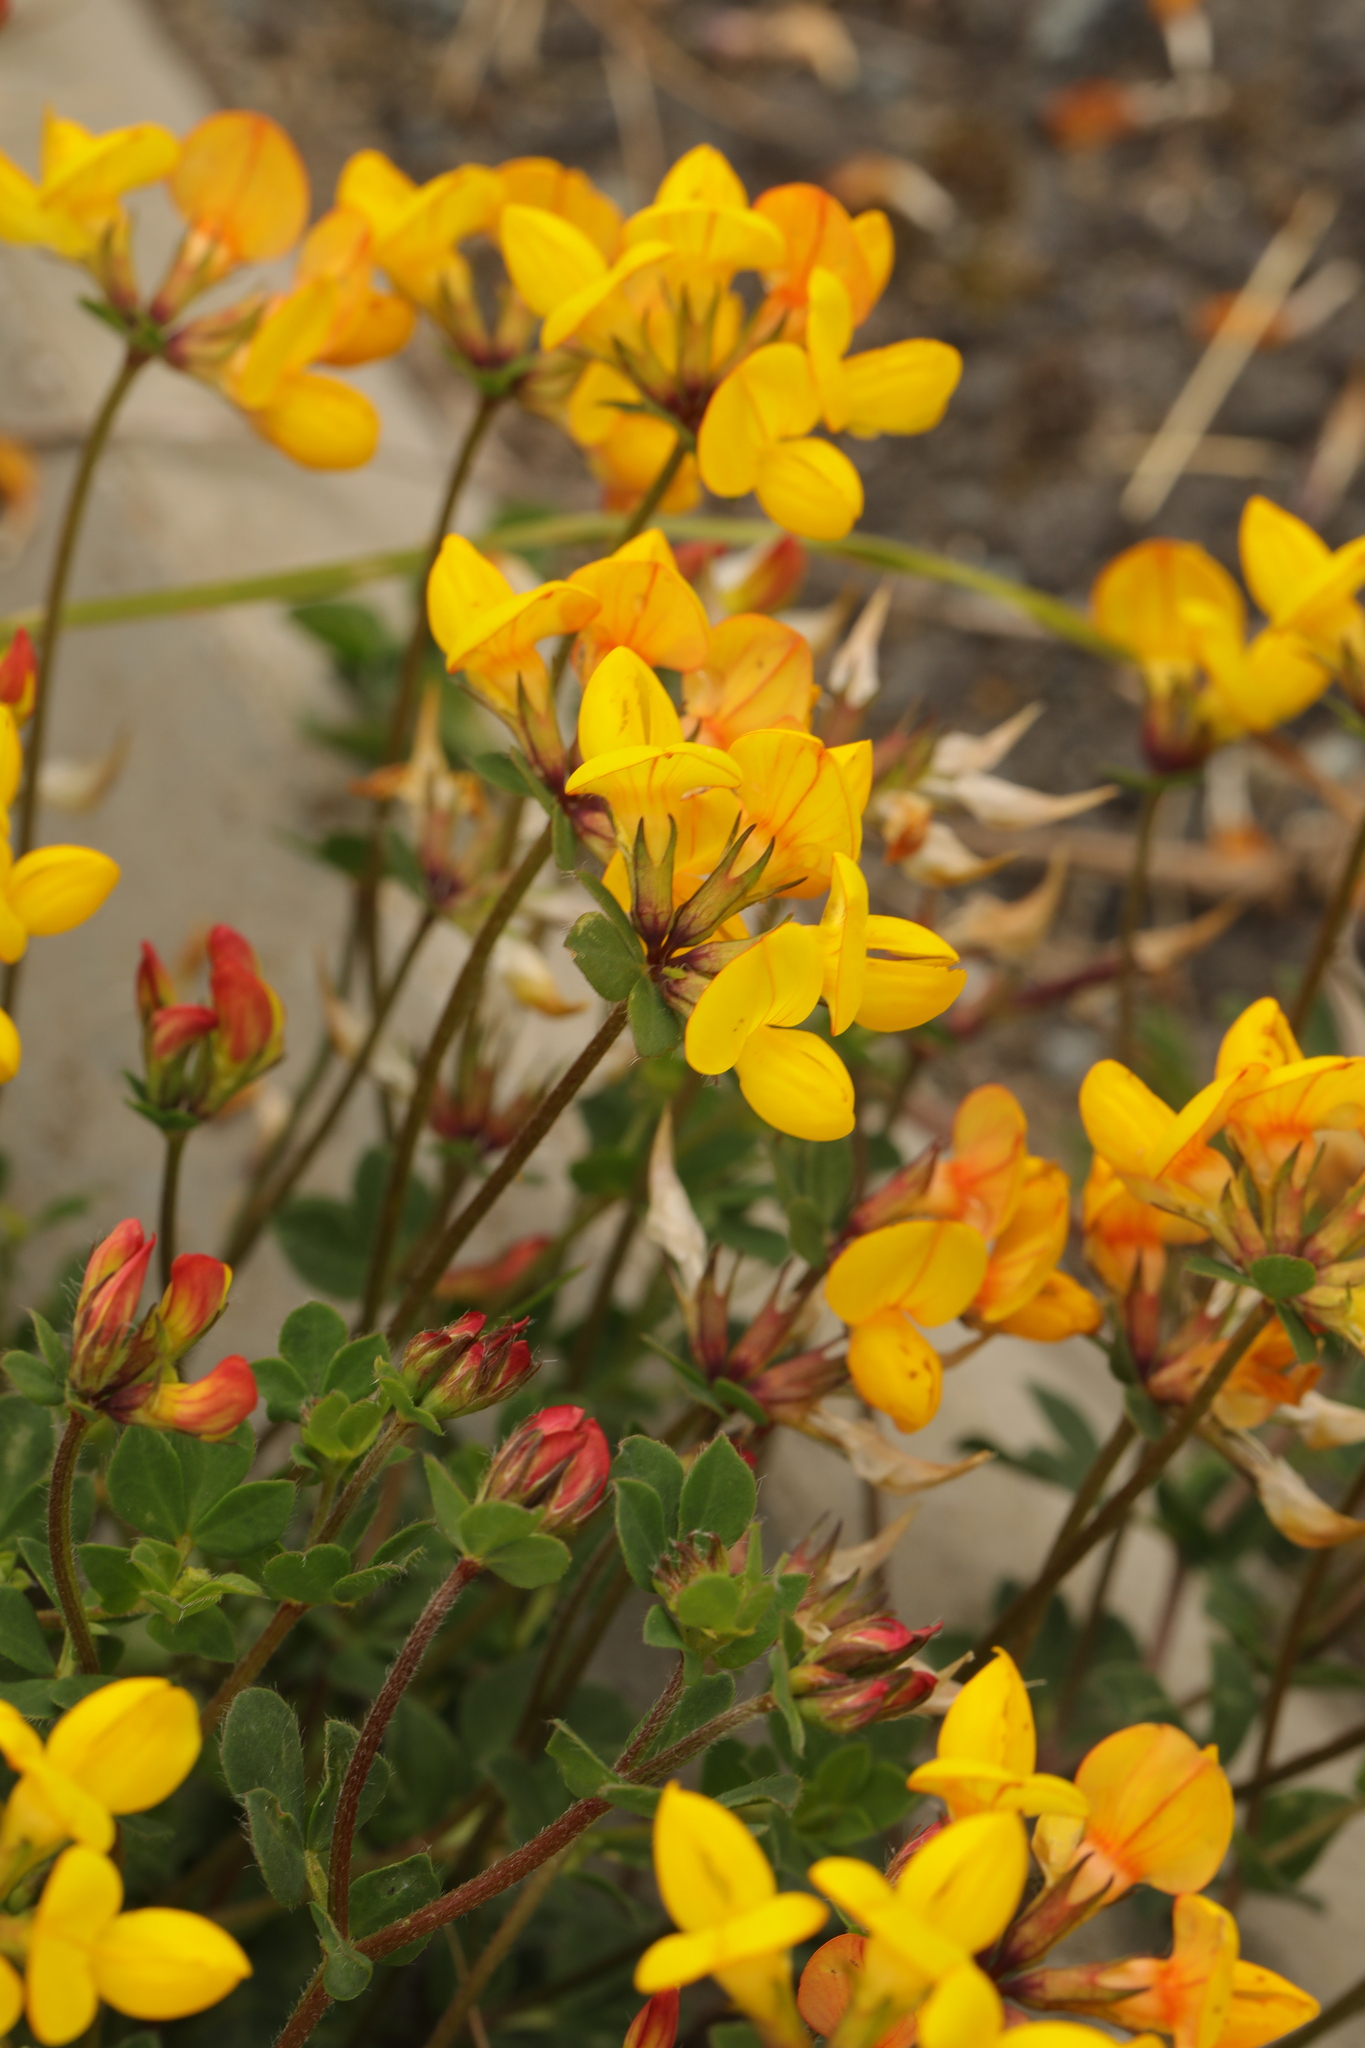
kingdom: Plantae
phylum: Tracheophyta
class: Magnoliopsida
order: Fabales
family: Fabaceae
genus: Lotus
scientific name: Lotus corniculatus
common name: Common bird's-foot-trefoil
